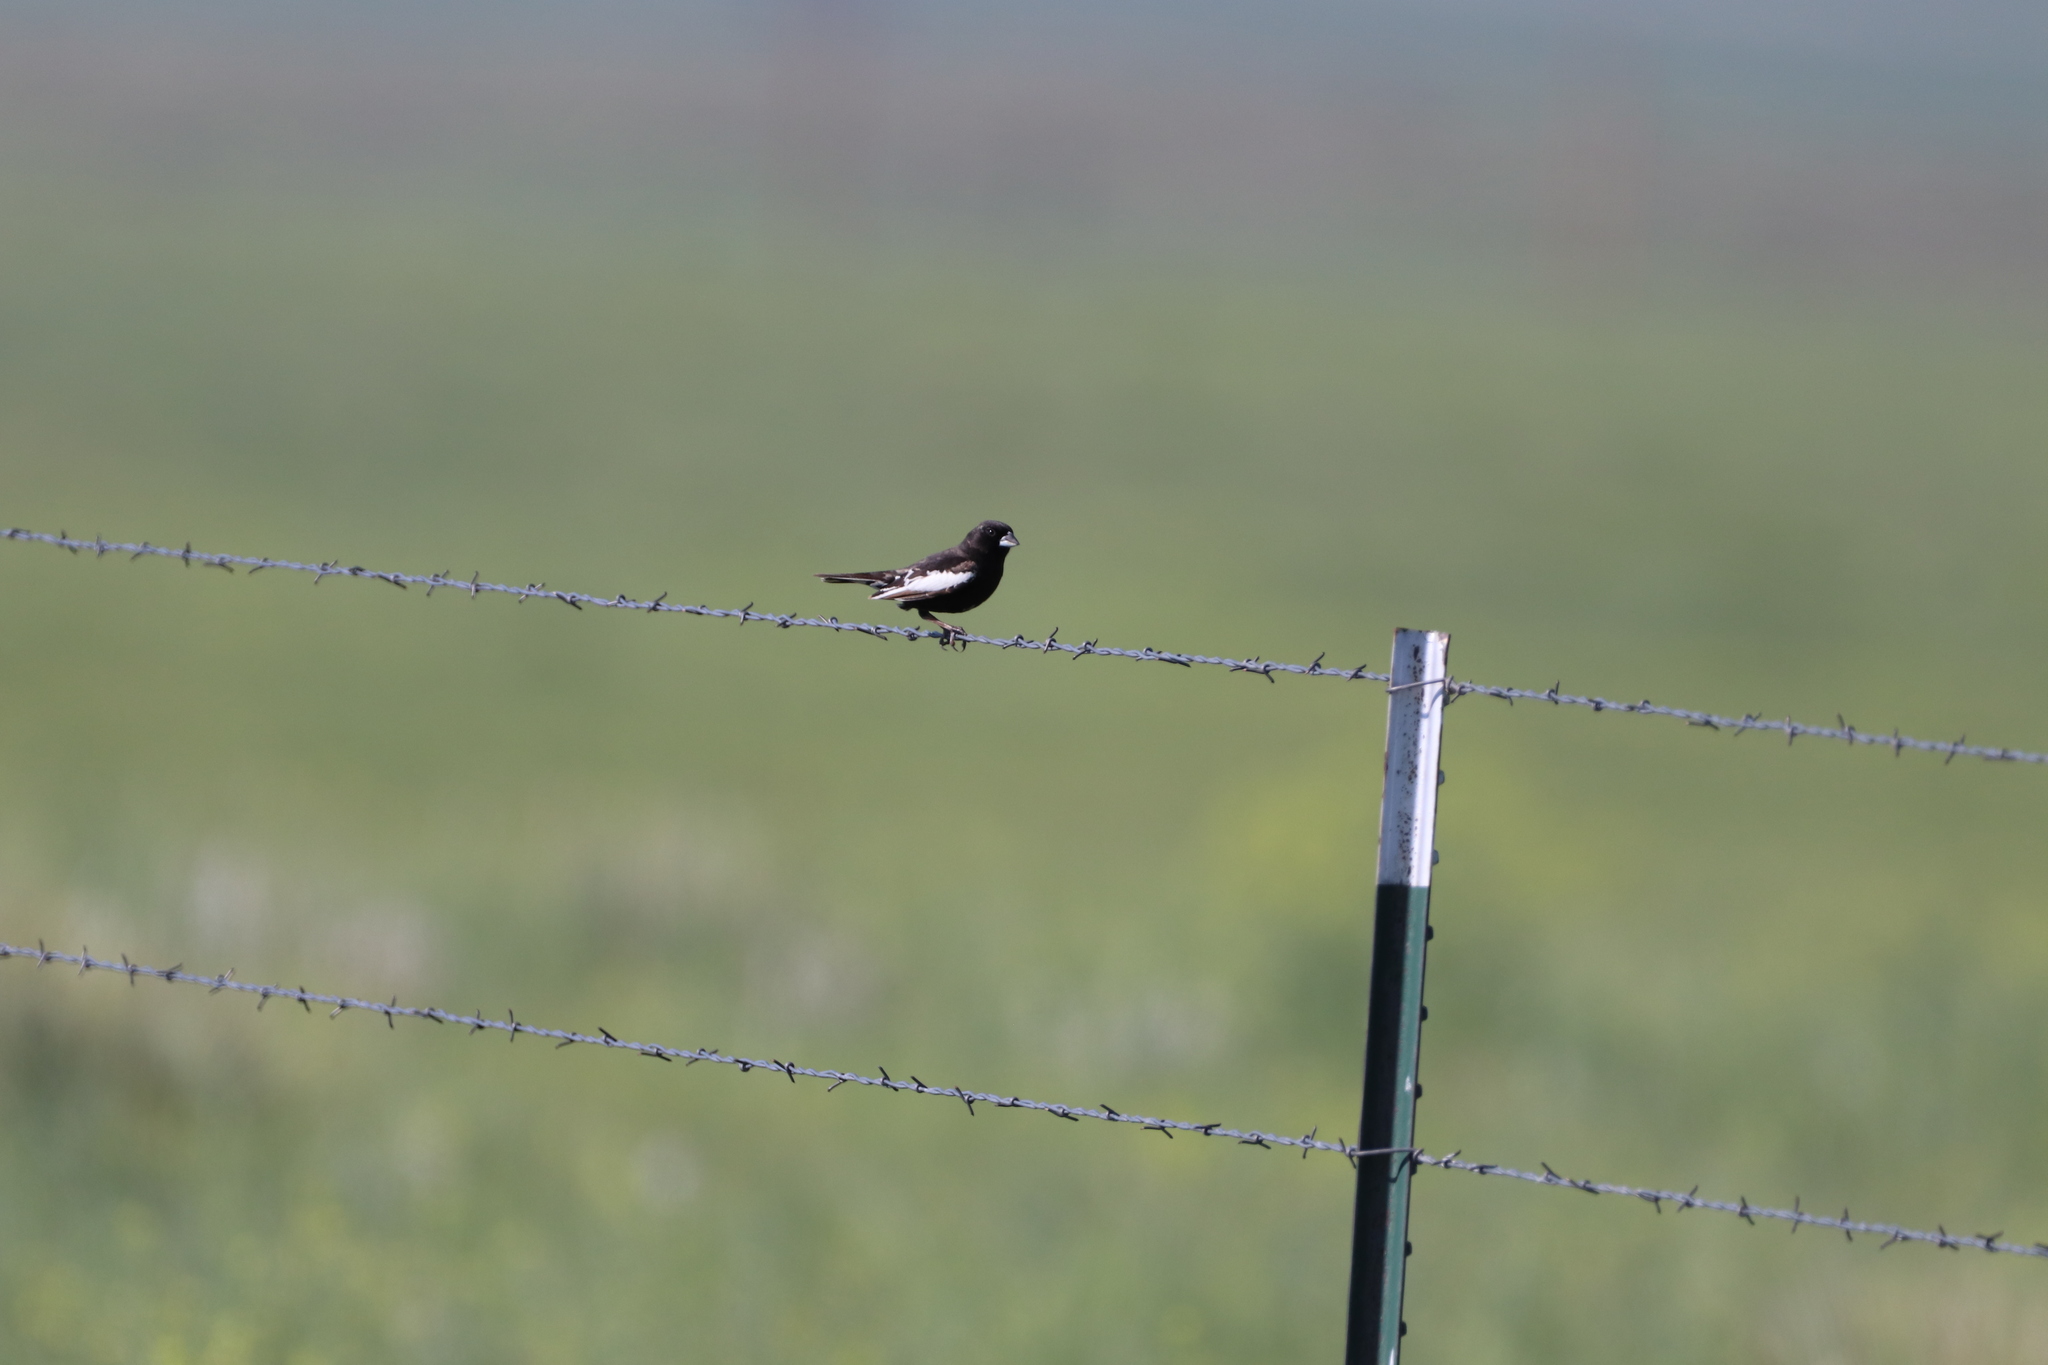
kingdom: Animalia
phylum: Chordata
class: Aves
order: Passeriformes
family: Passerellidae
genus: Calamospiza
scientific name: Calamospiza melanocorys
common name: Lark bunting
